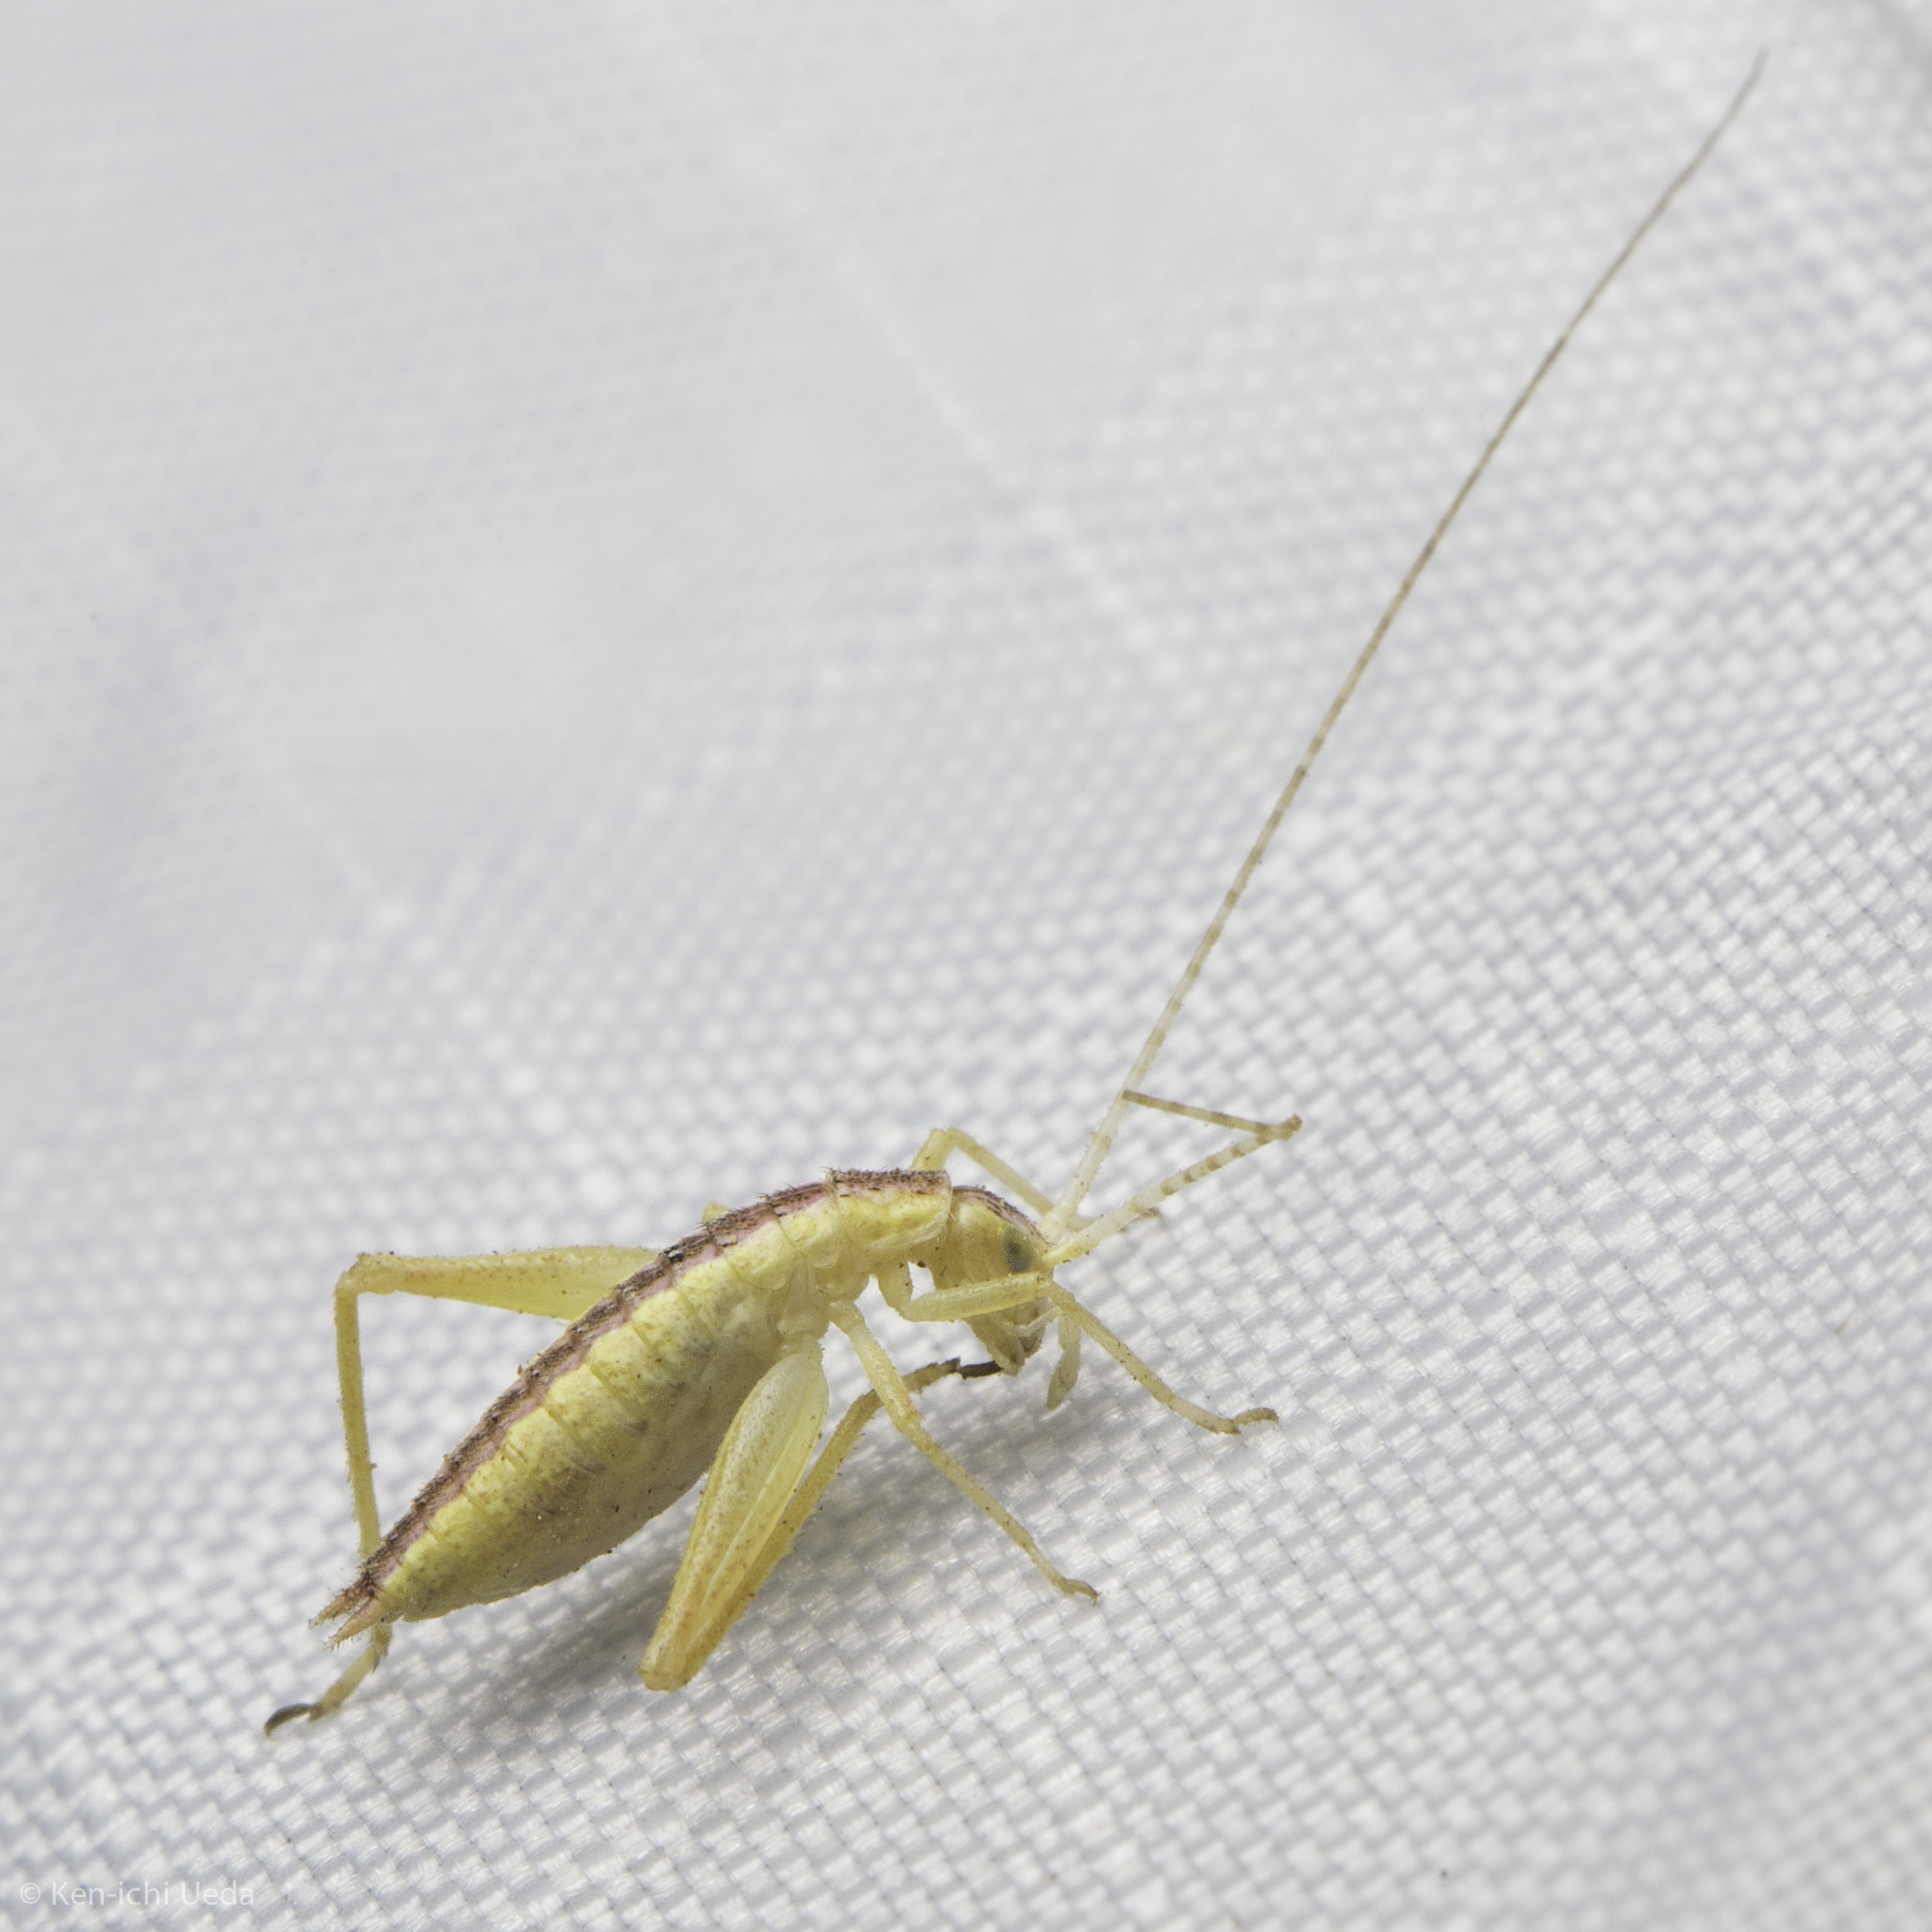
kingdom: Animalia
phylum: Arthropoda
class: Insecta
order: Orthoptera
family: Gryllidae
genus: Oecanthus
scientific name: Oecanthus californicus
